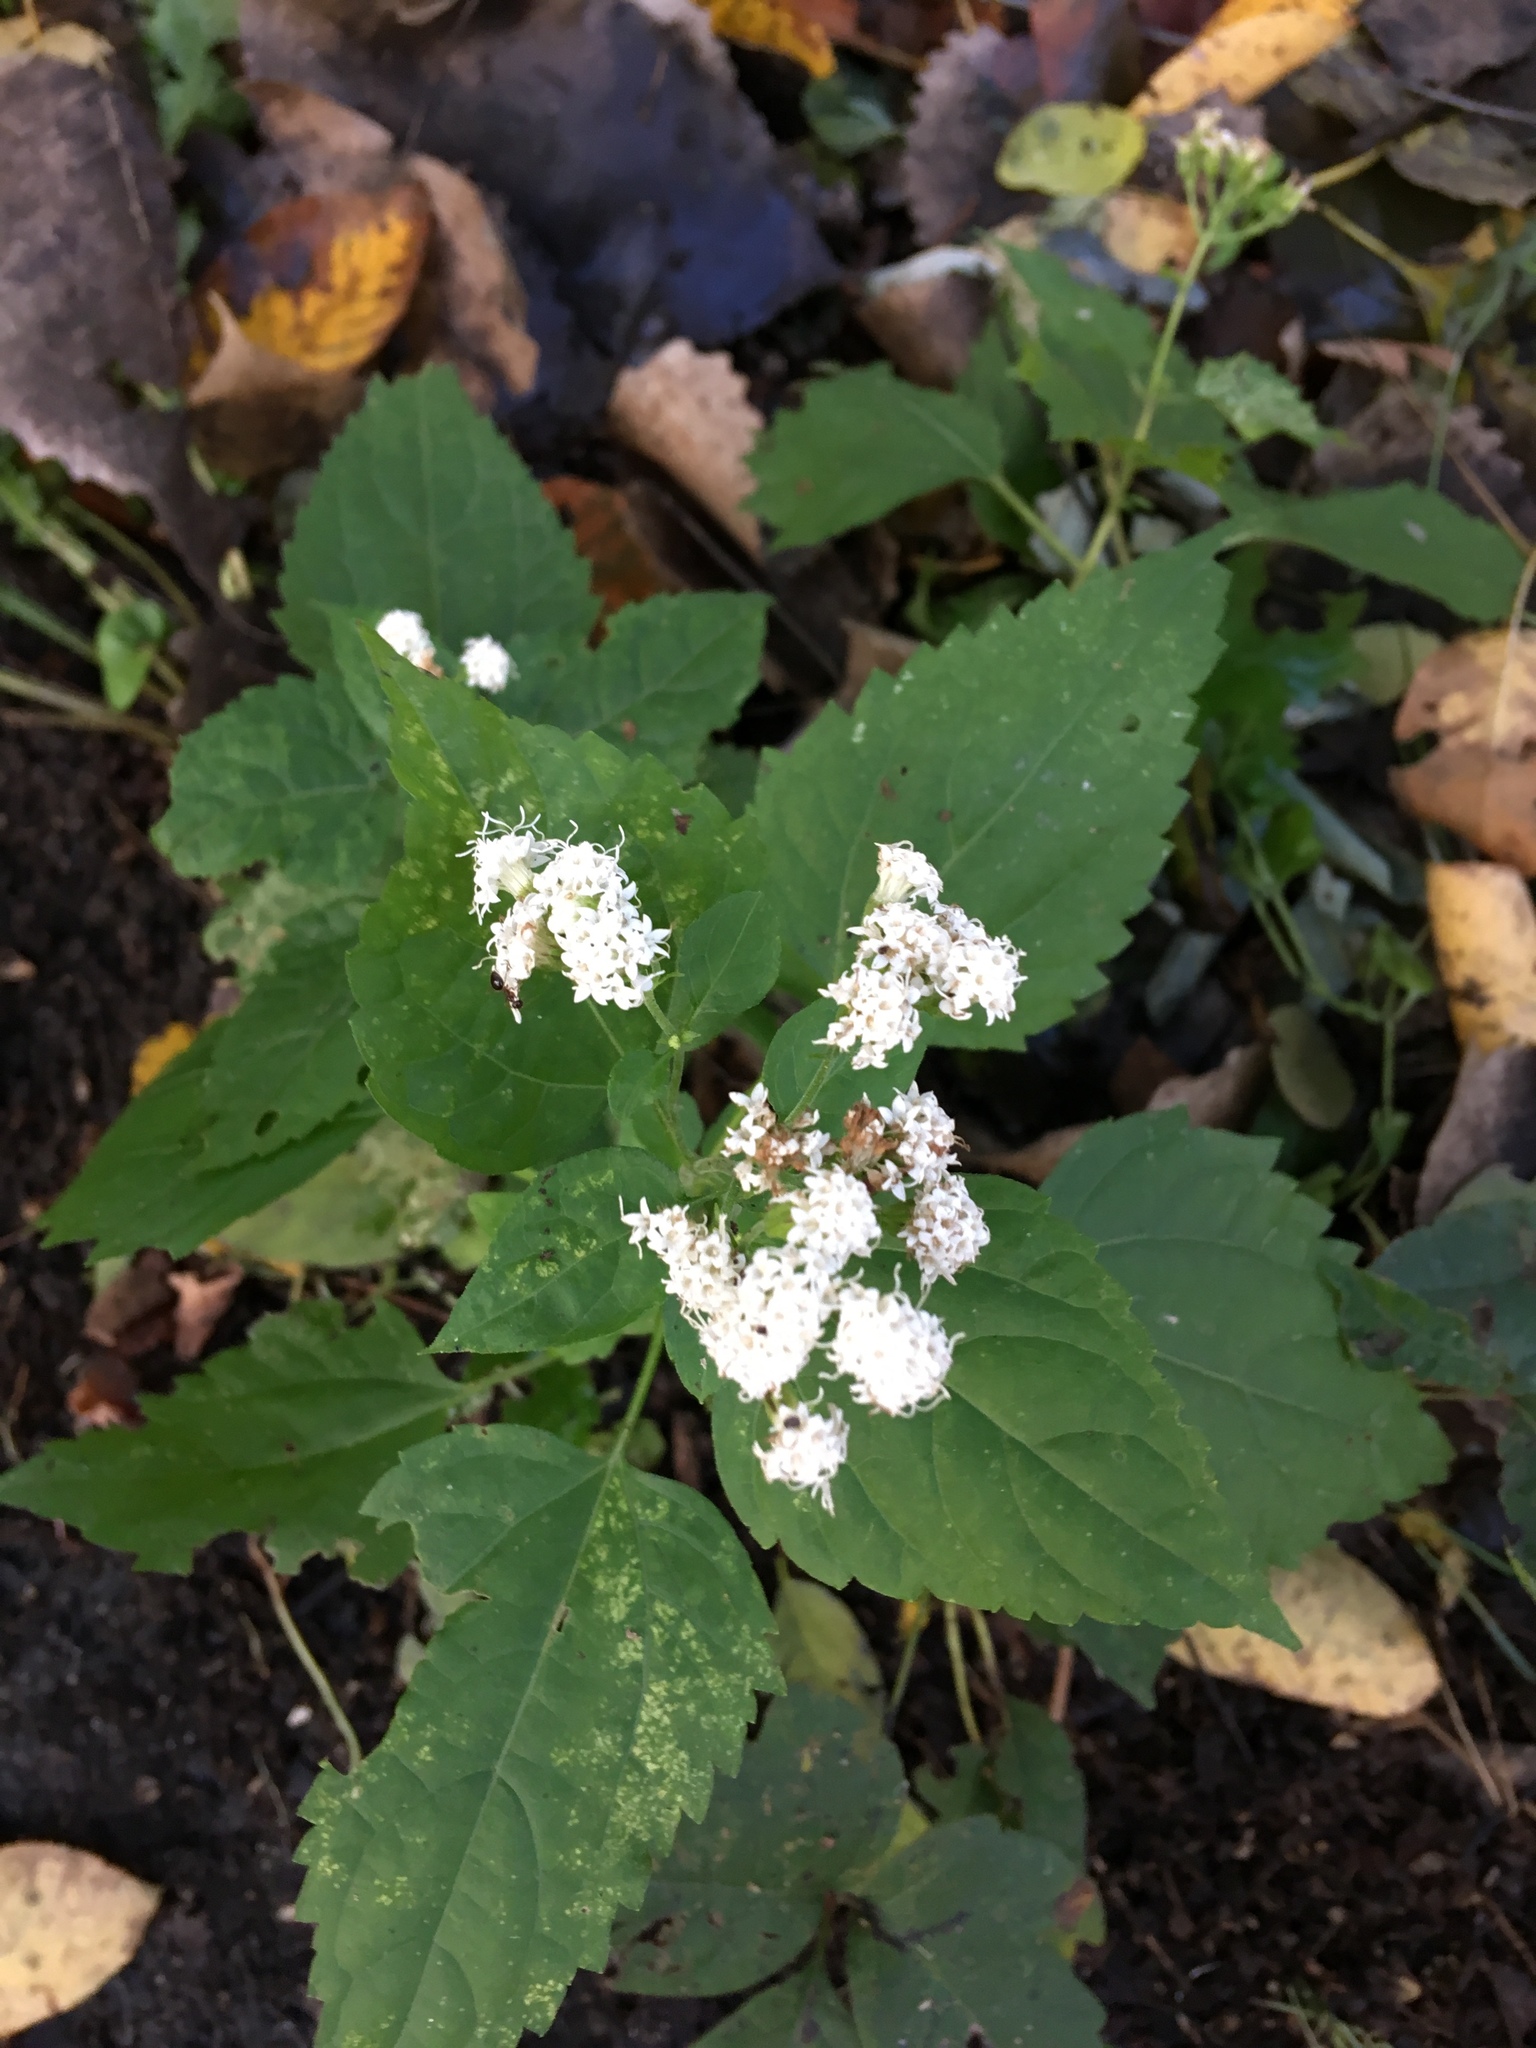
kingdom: Plantae
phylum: Tracheophyta
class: Magnoliopsida
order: Asterales
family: Asteraceae
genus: Ageratina
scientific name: Ageratina altissima
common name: White snakeroot
